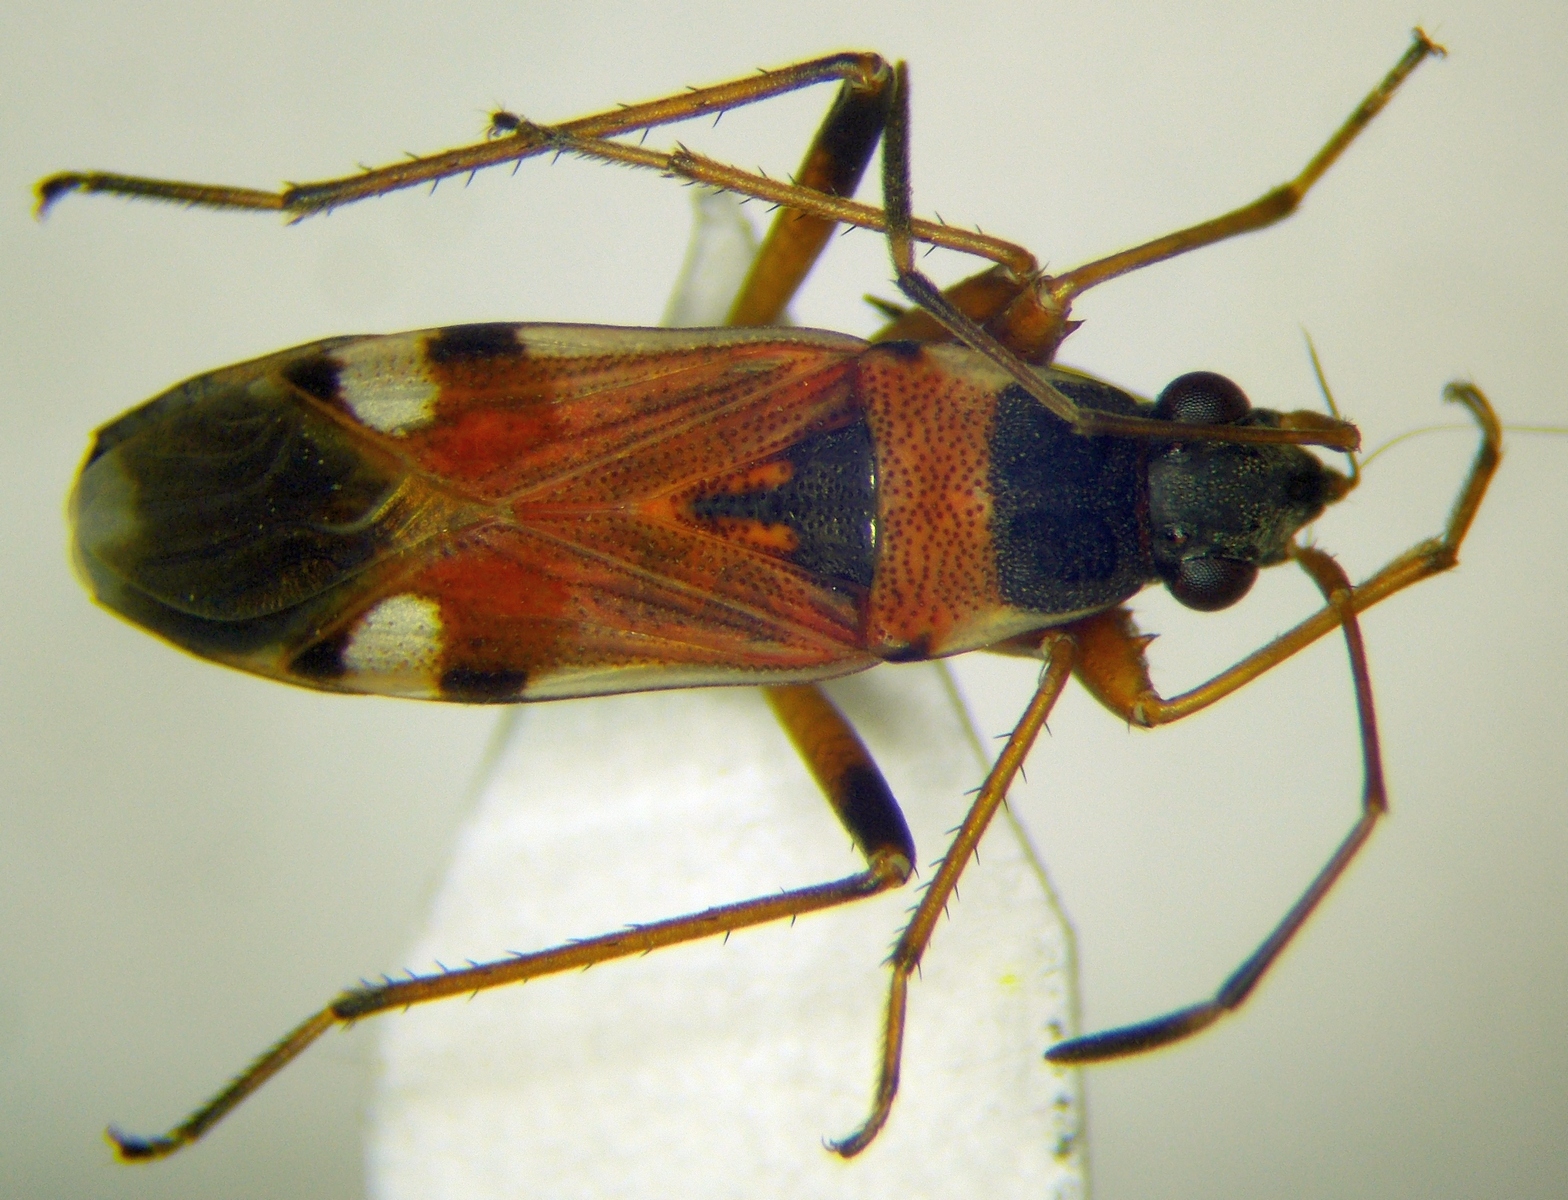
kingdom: Animalia
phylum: Arthropoda
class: Insecta
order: Hemiptera
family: Rhyparochromidae
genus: Beosus
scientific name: Beosus quadripunctatus
